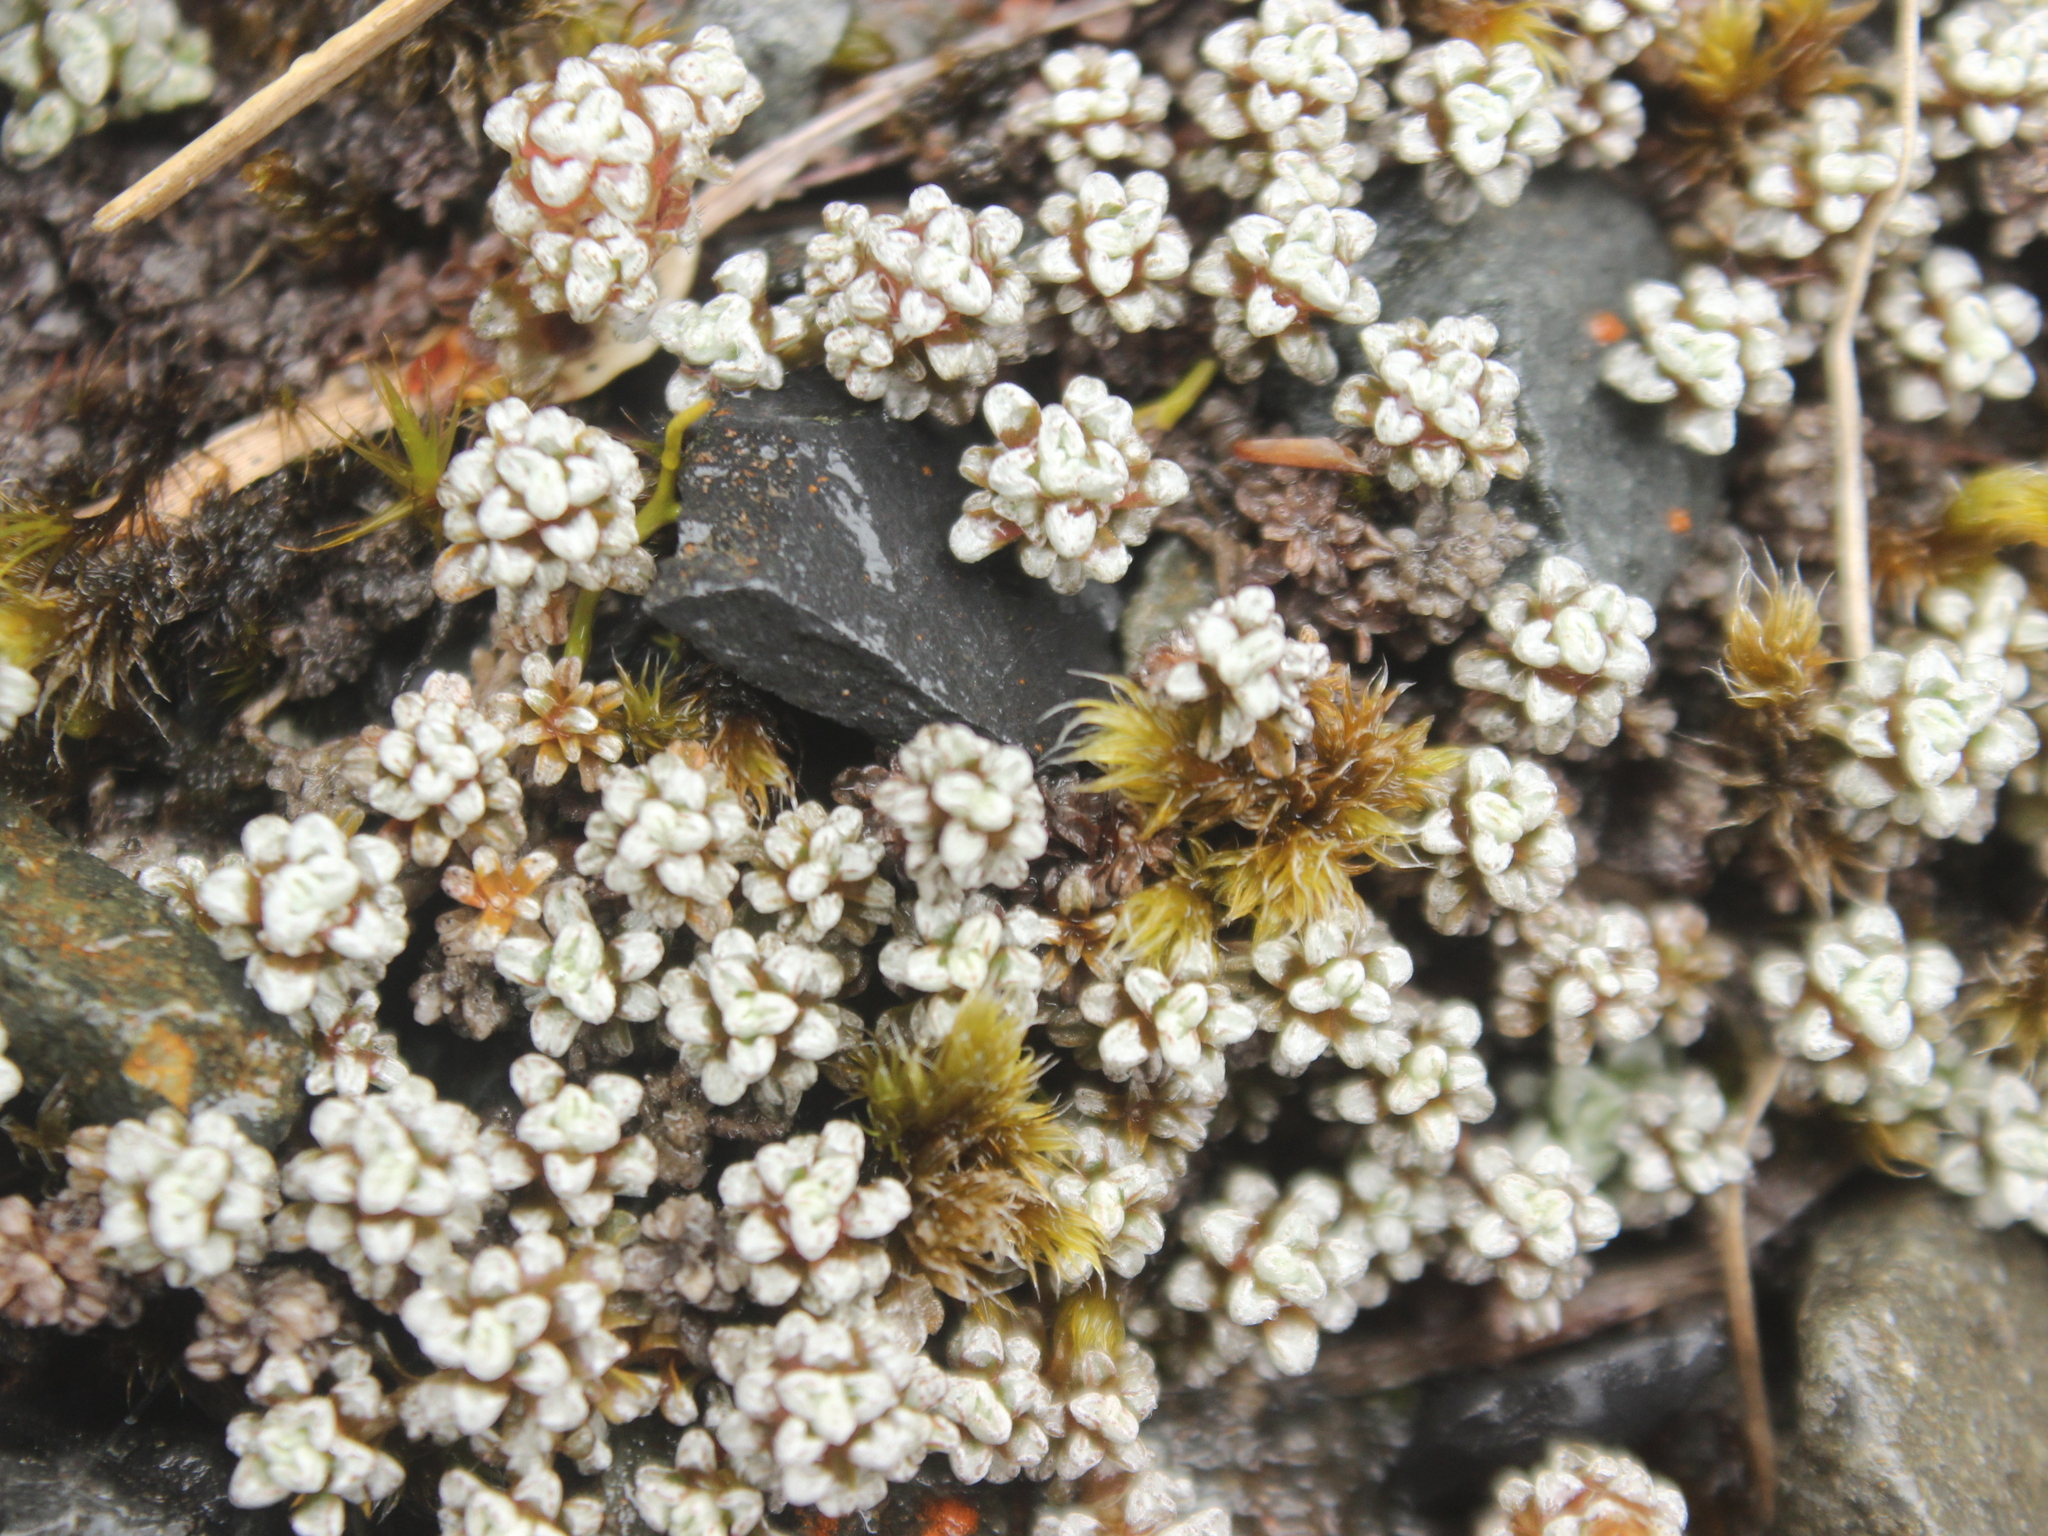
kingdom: Plantae
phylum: Tracheophyta
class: Magnoliopsida
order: Asterales
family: Asteraceae
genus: Raoulia
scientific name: Raoulia albosericea
